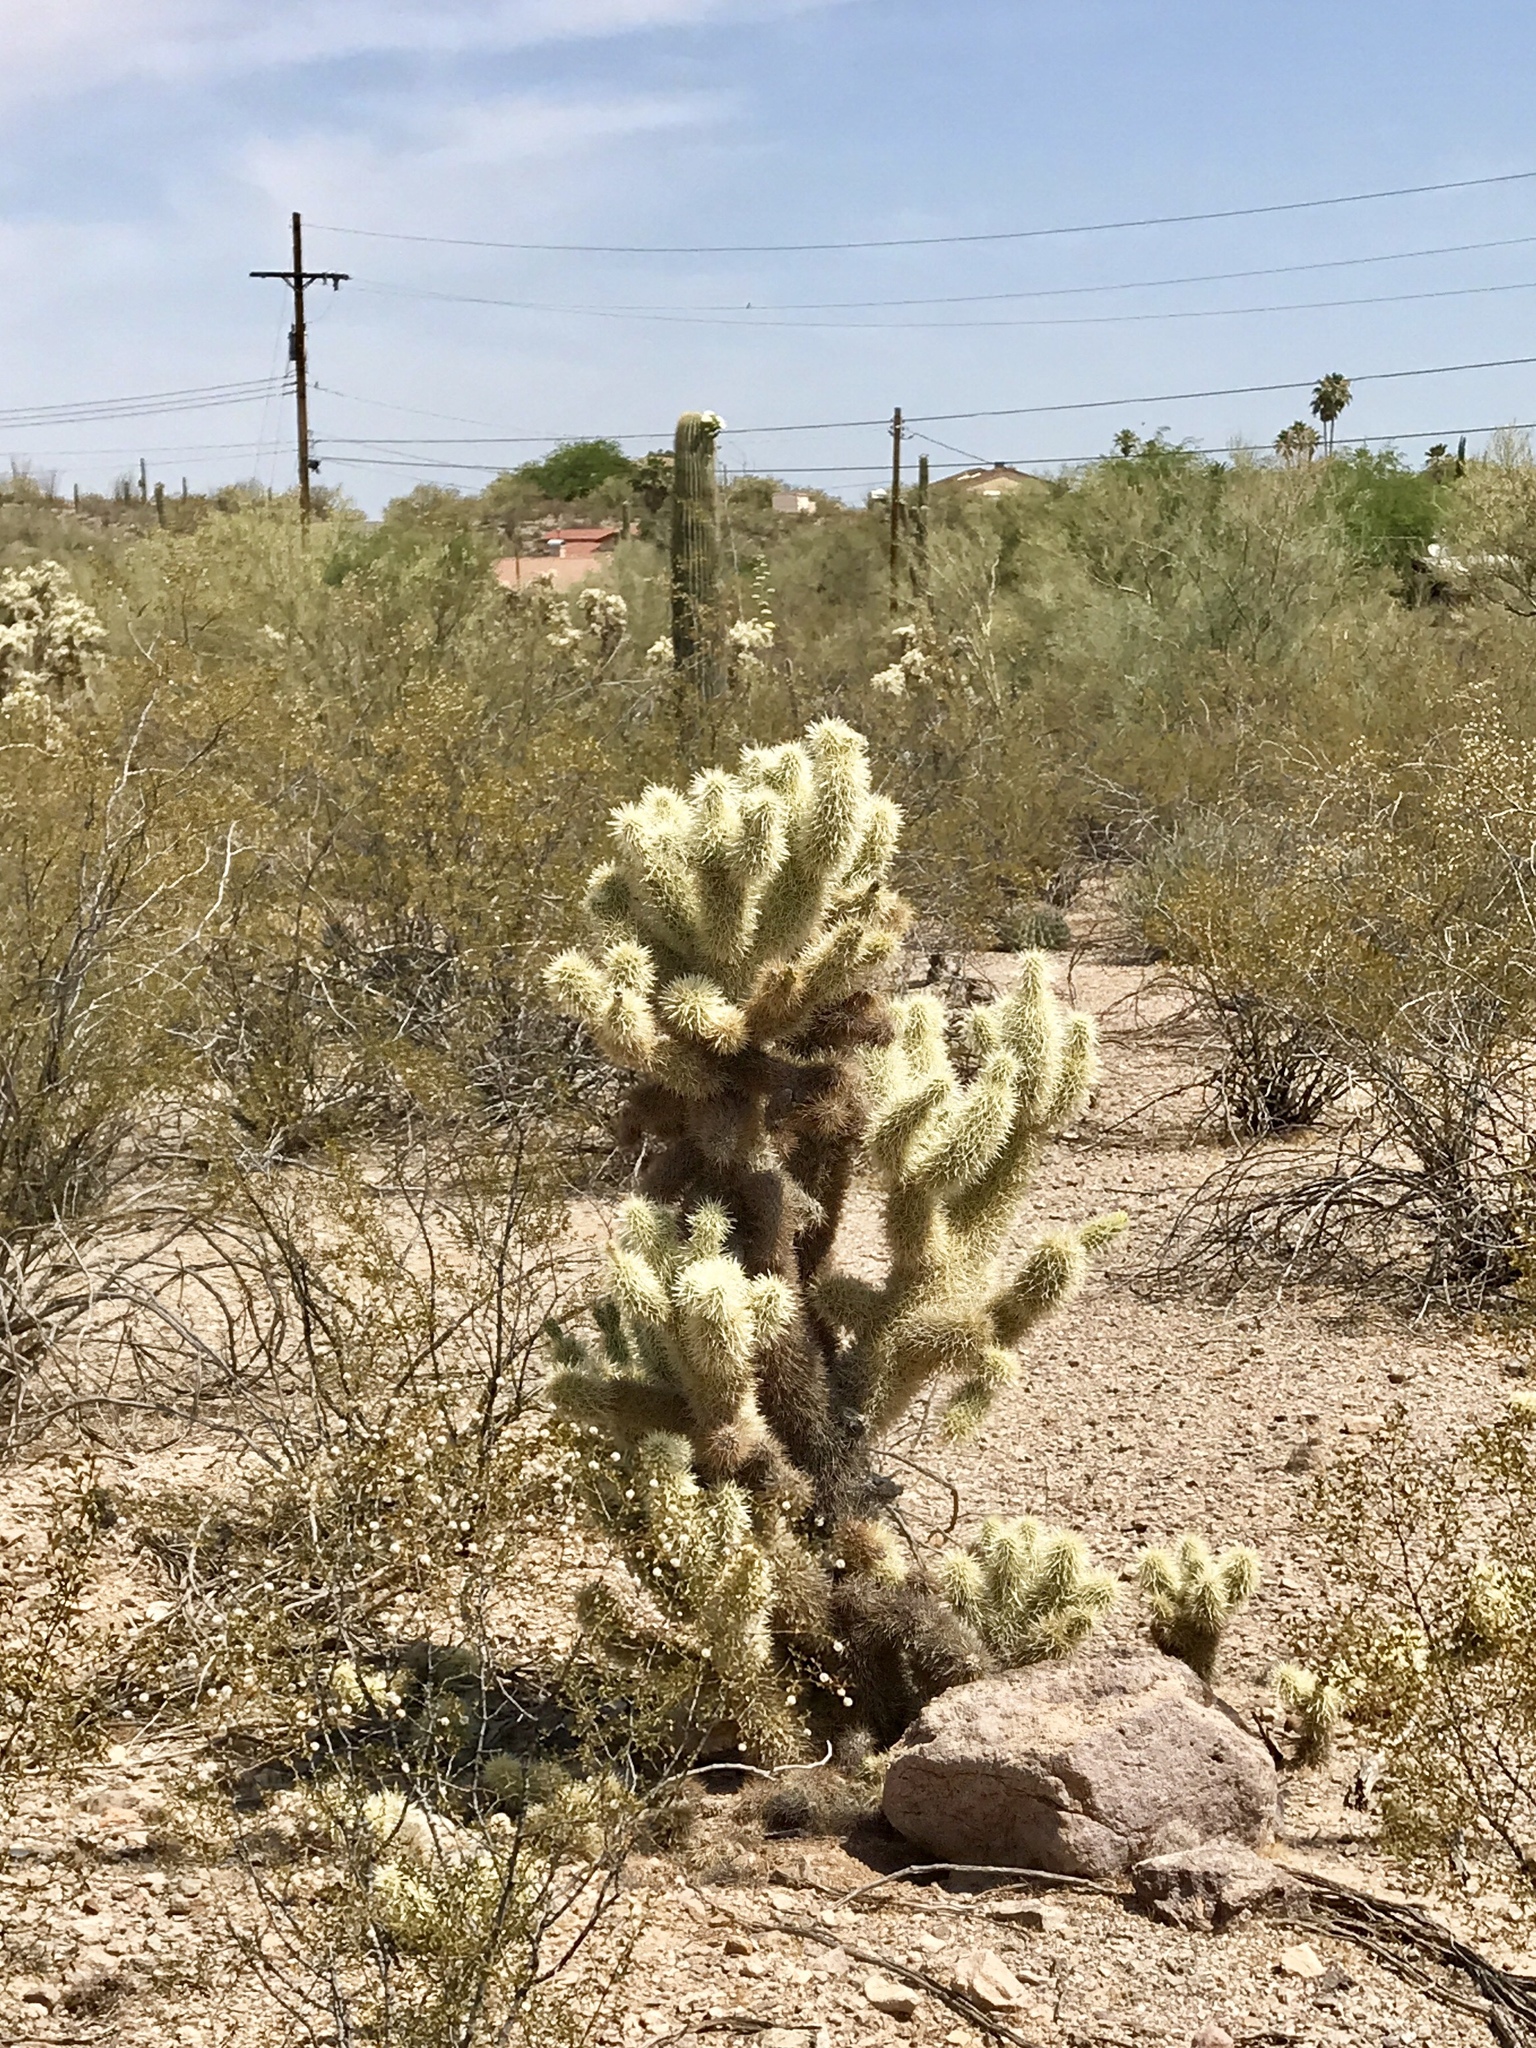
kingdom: Plantae
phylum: Tracheophyta
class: Magnoliopsida
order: Caryophyllales
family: Cactaceae
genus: Cylindropuntia
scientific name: Cylindropuntia fosbergii
